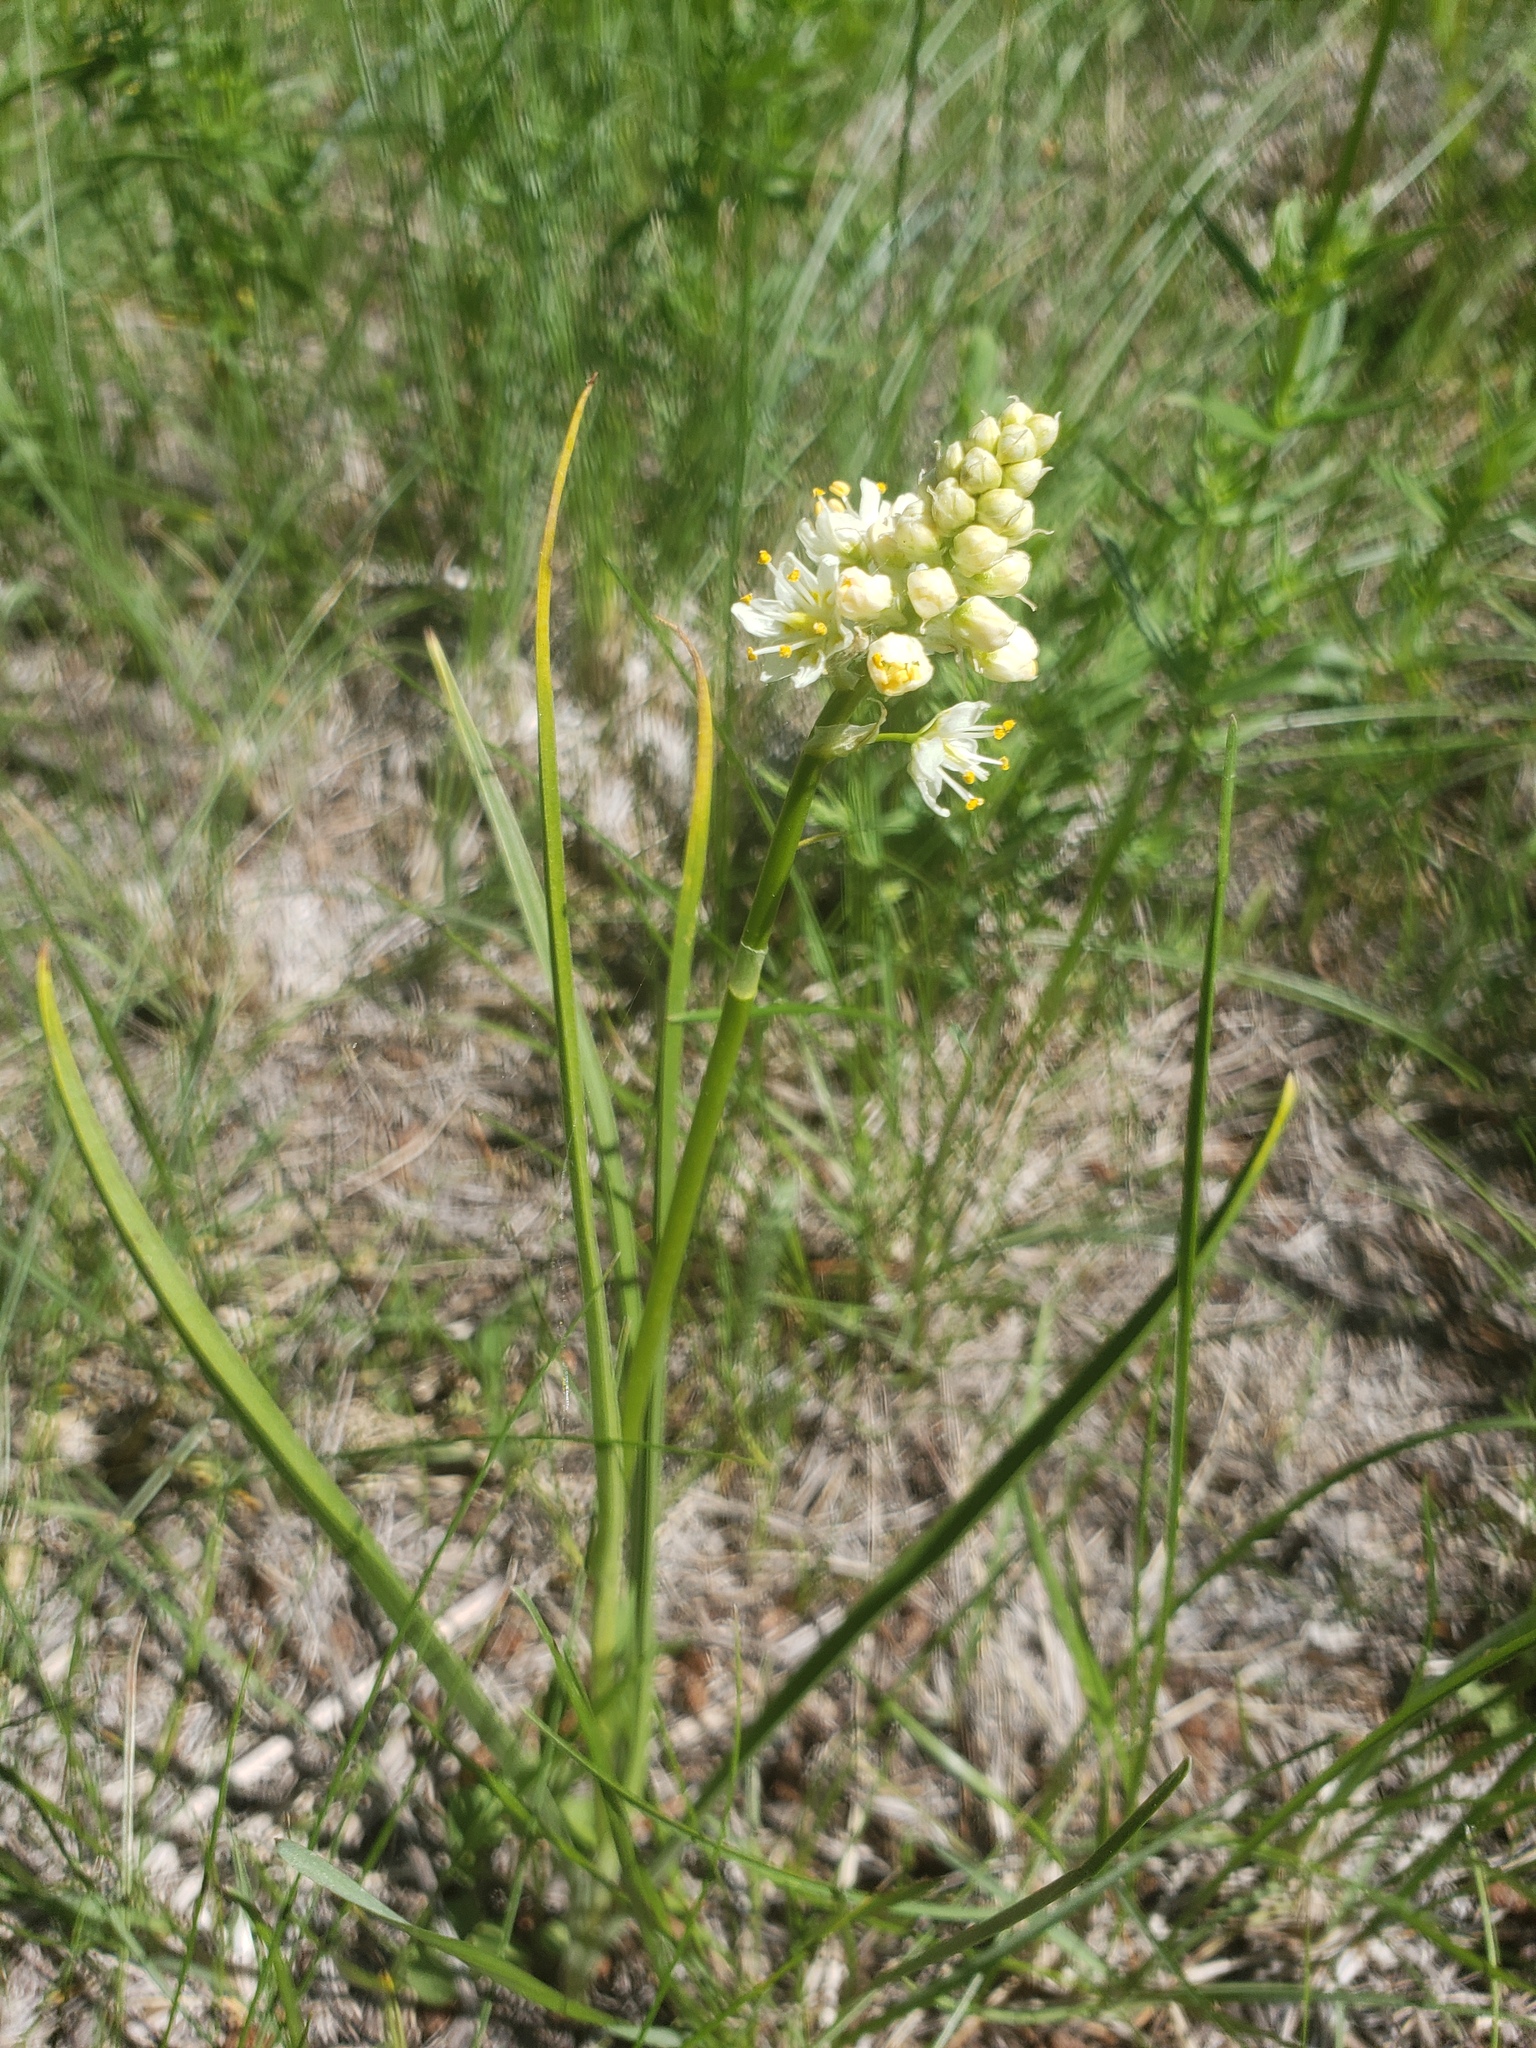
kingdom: Plantae
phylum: Tracheophyta
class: Liliopsida
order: Liliales
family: Melanthiaceae
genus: Toxicoscordion
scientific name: Toxicoscordion venenosum
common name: Meadow death camas
